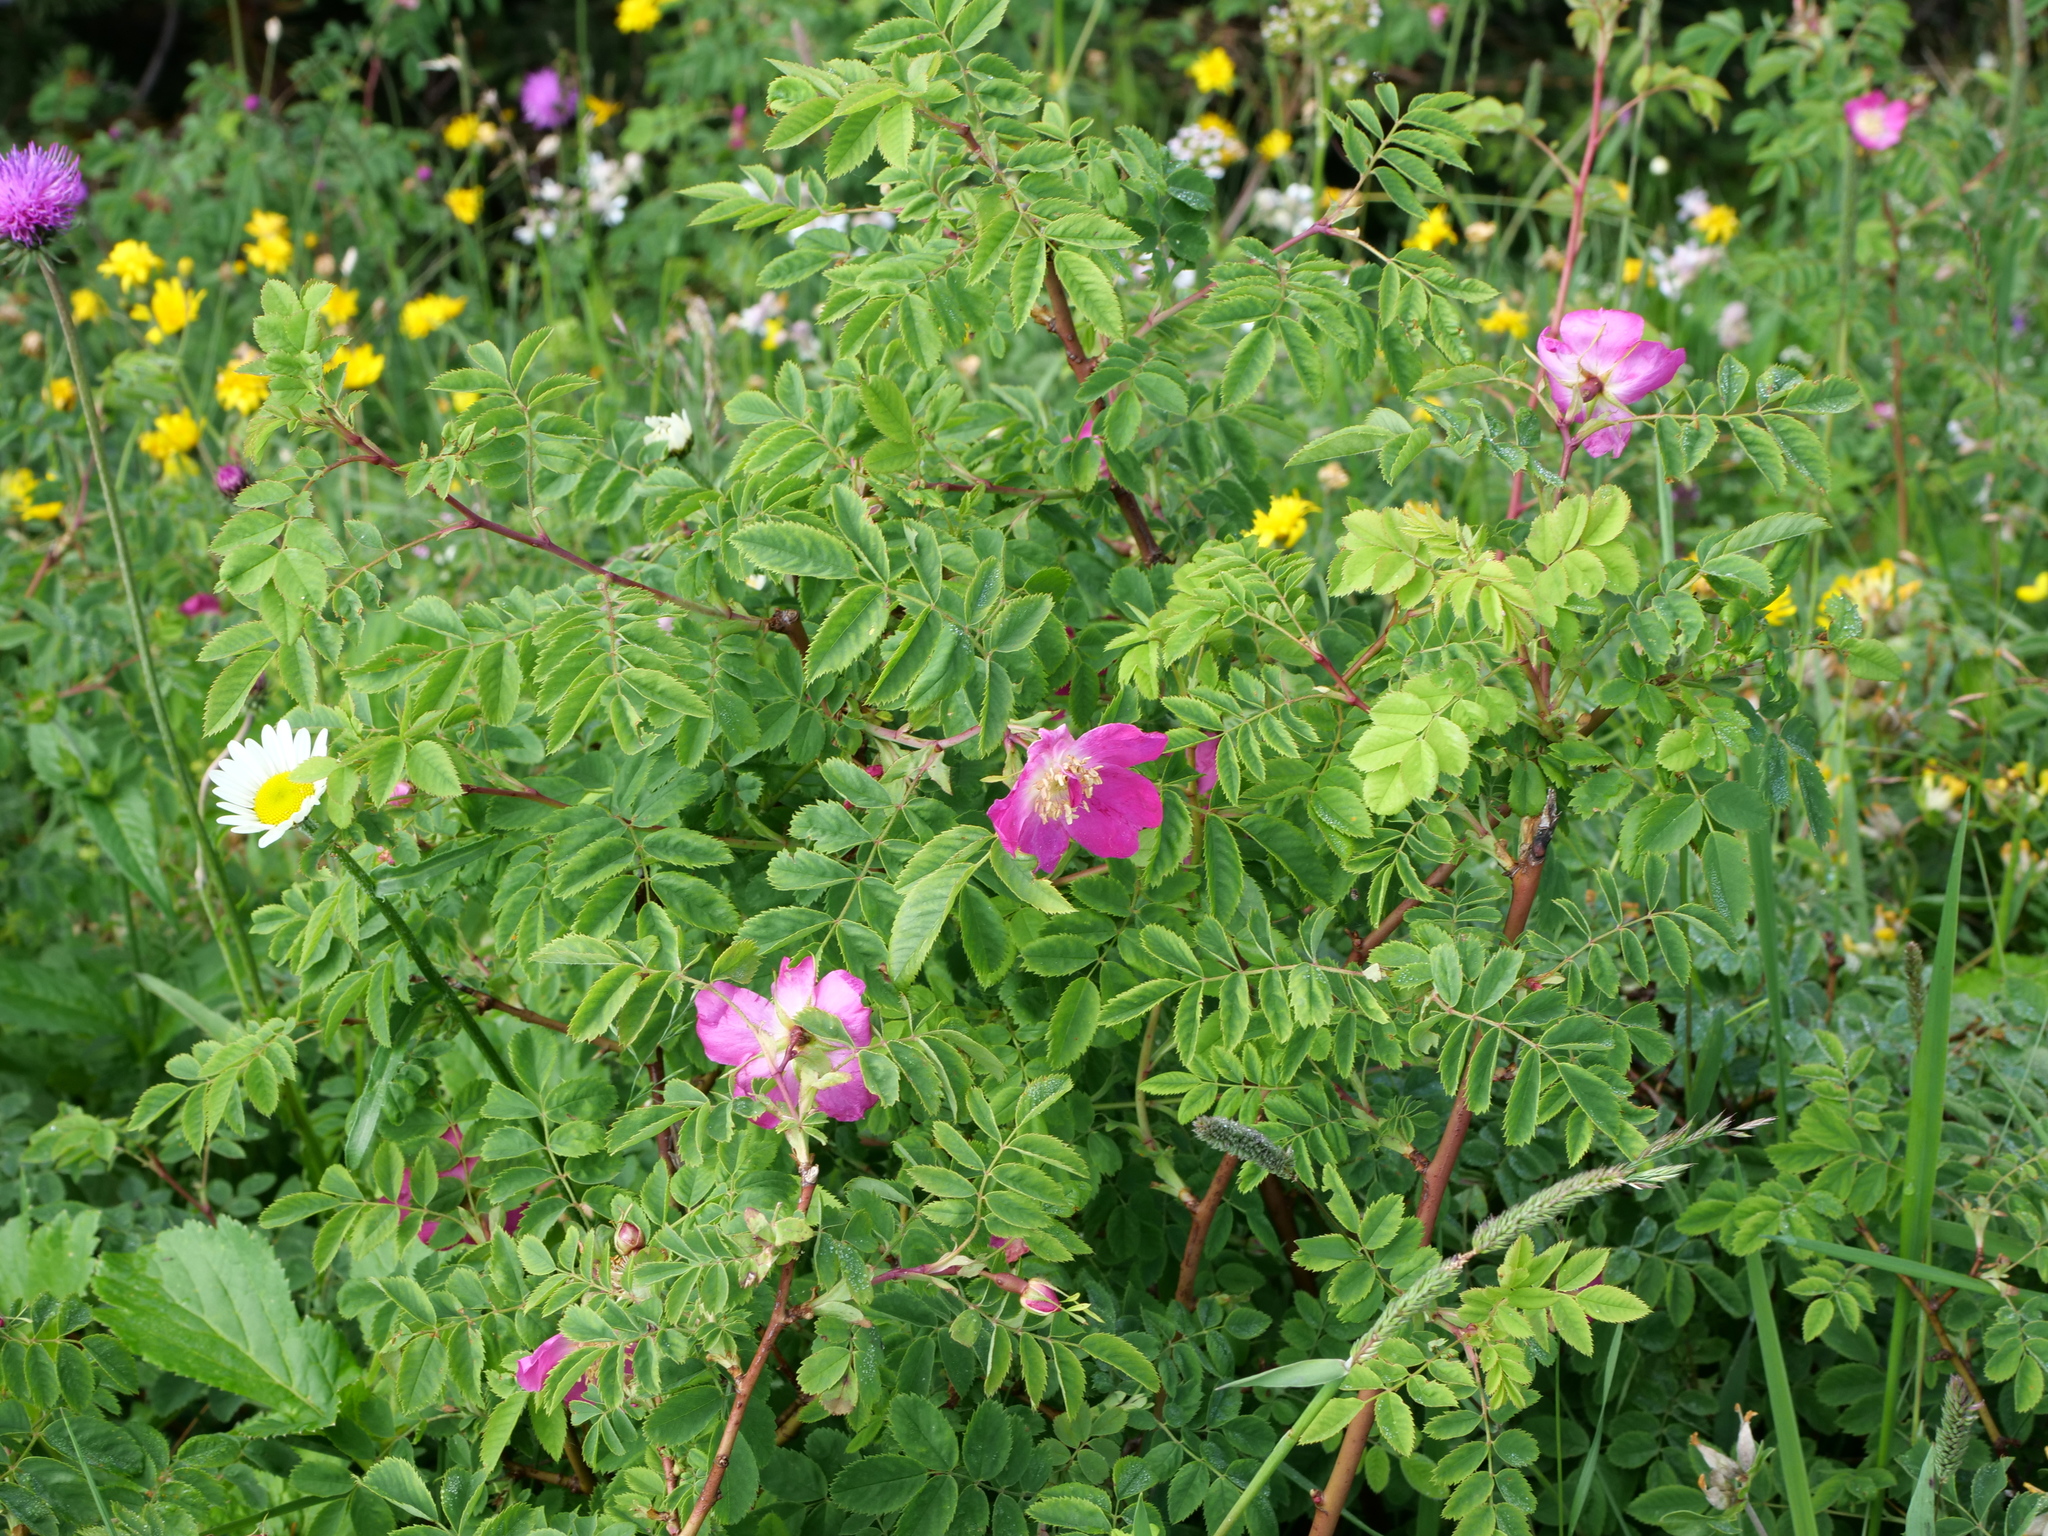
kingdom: Plantae
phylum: Tracheophyta
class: Magnoliopsida
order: Rosales
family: Rosaceae
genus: Rosa
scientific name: Rosa pendulina
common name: Alpine rose
